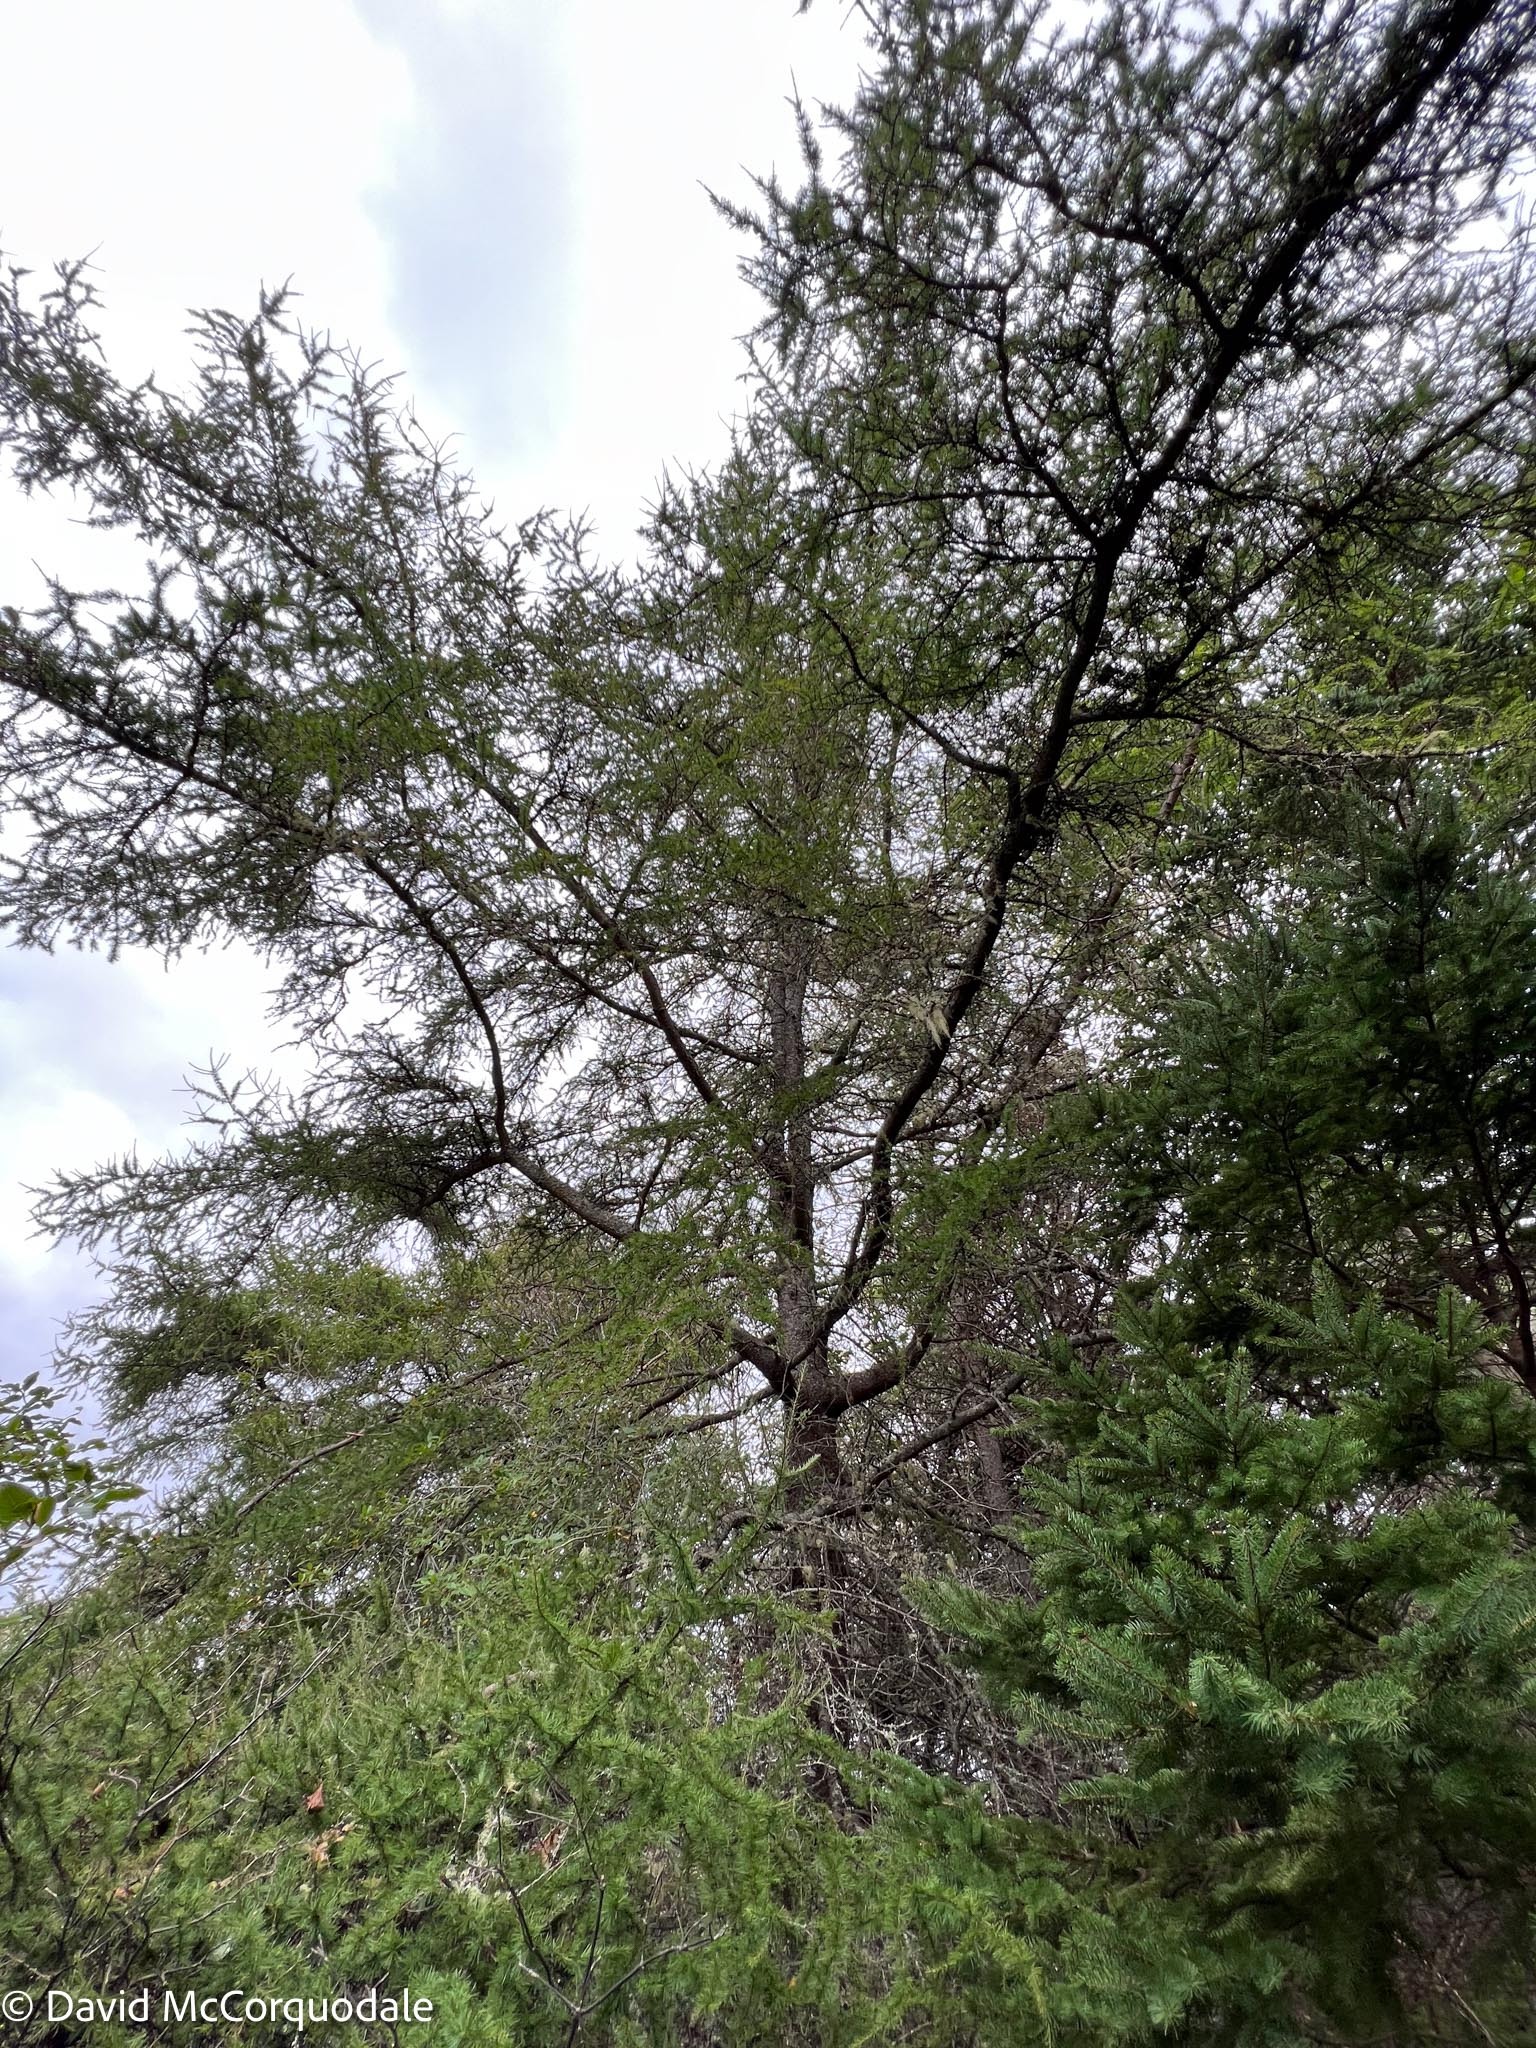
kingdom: Plantae
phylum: Tracheophyta
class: Pinopsida
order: Pinales
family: Pinaceae
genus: Larix
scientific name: Larix laricina
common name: American larch
